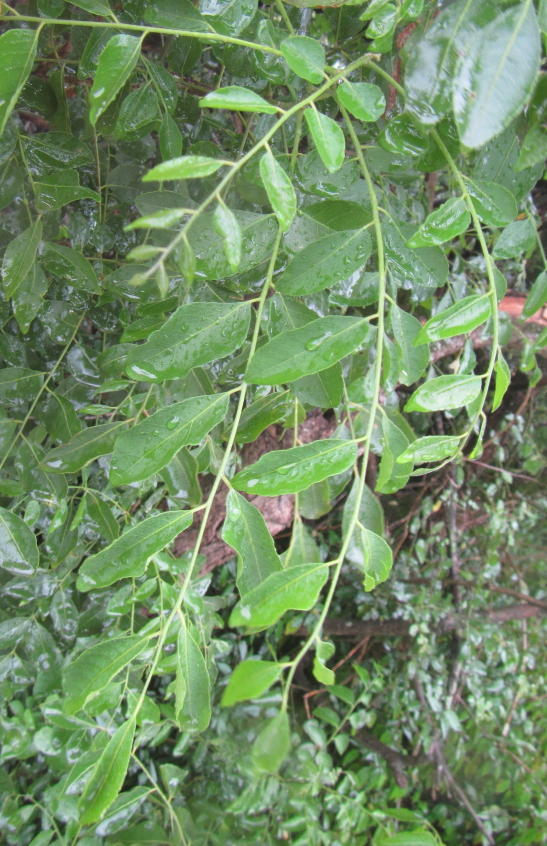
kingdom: Plantae
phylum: Tracheophyta
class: Magnoliopsida
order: Sapindales
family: Rutaceae
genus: Clausena
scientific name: Clausena anisata
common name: Horsewood
